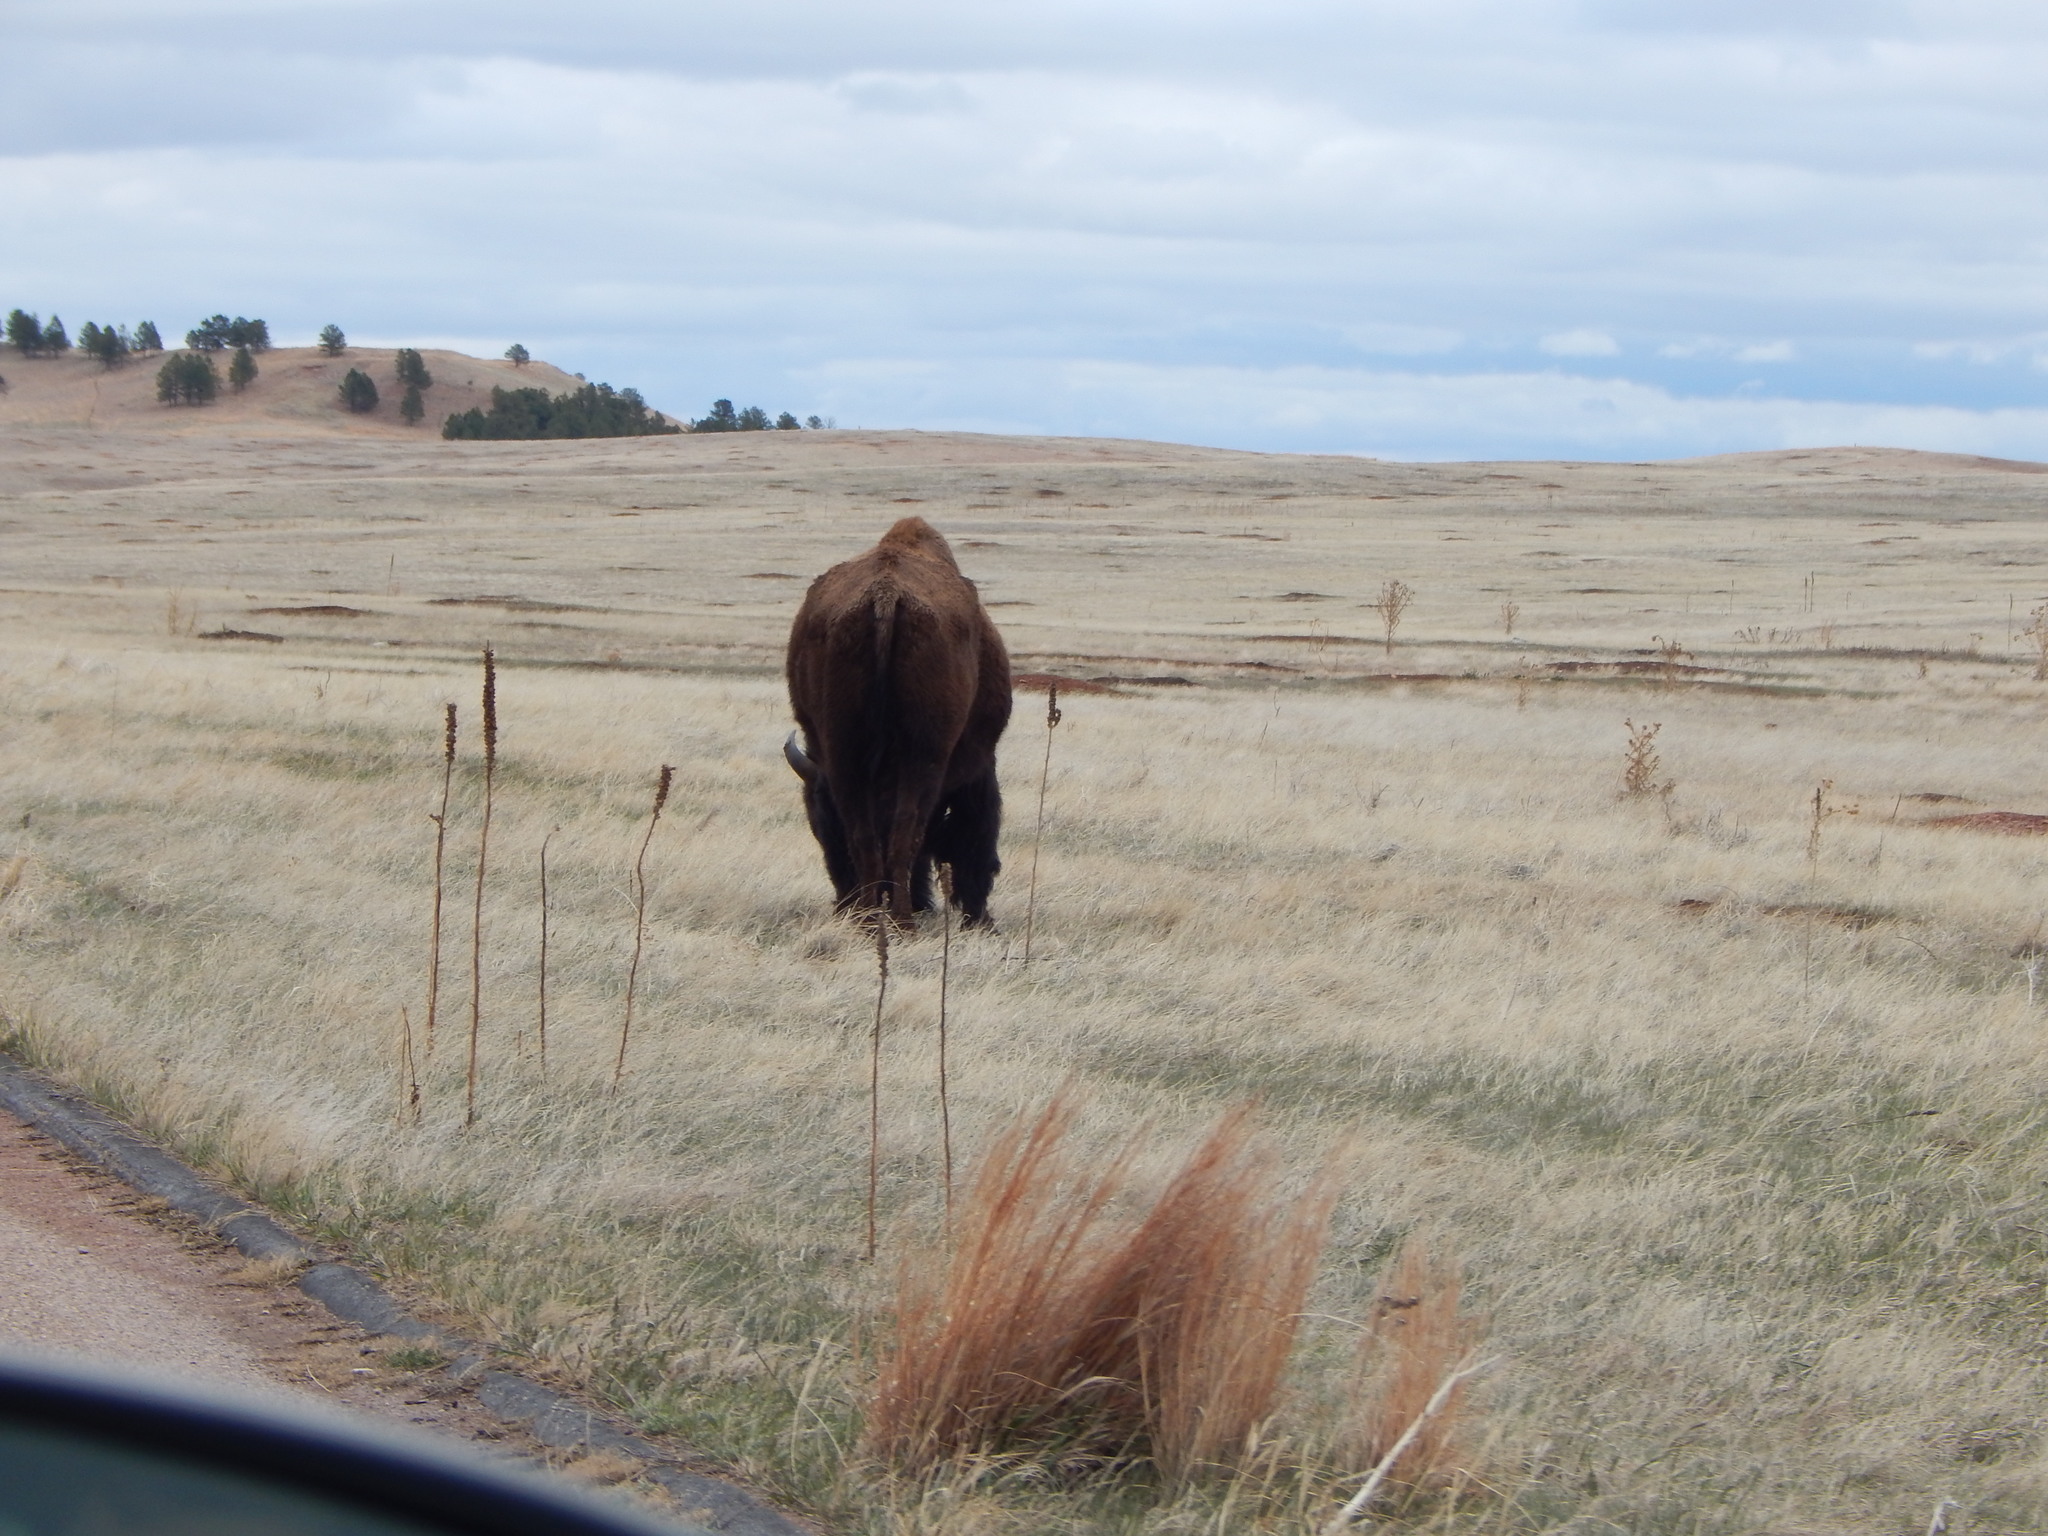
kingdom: Animalia
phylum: Chordata
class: Mammalia
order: Artiodactyla
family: Bovidae
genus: Bison
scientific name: Bison bison
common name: American bison
